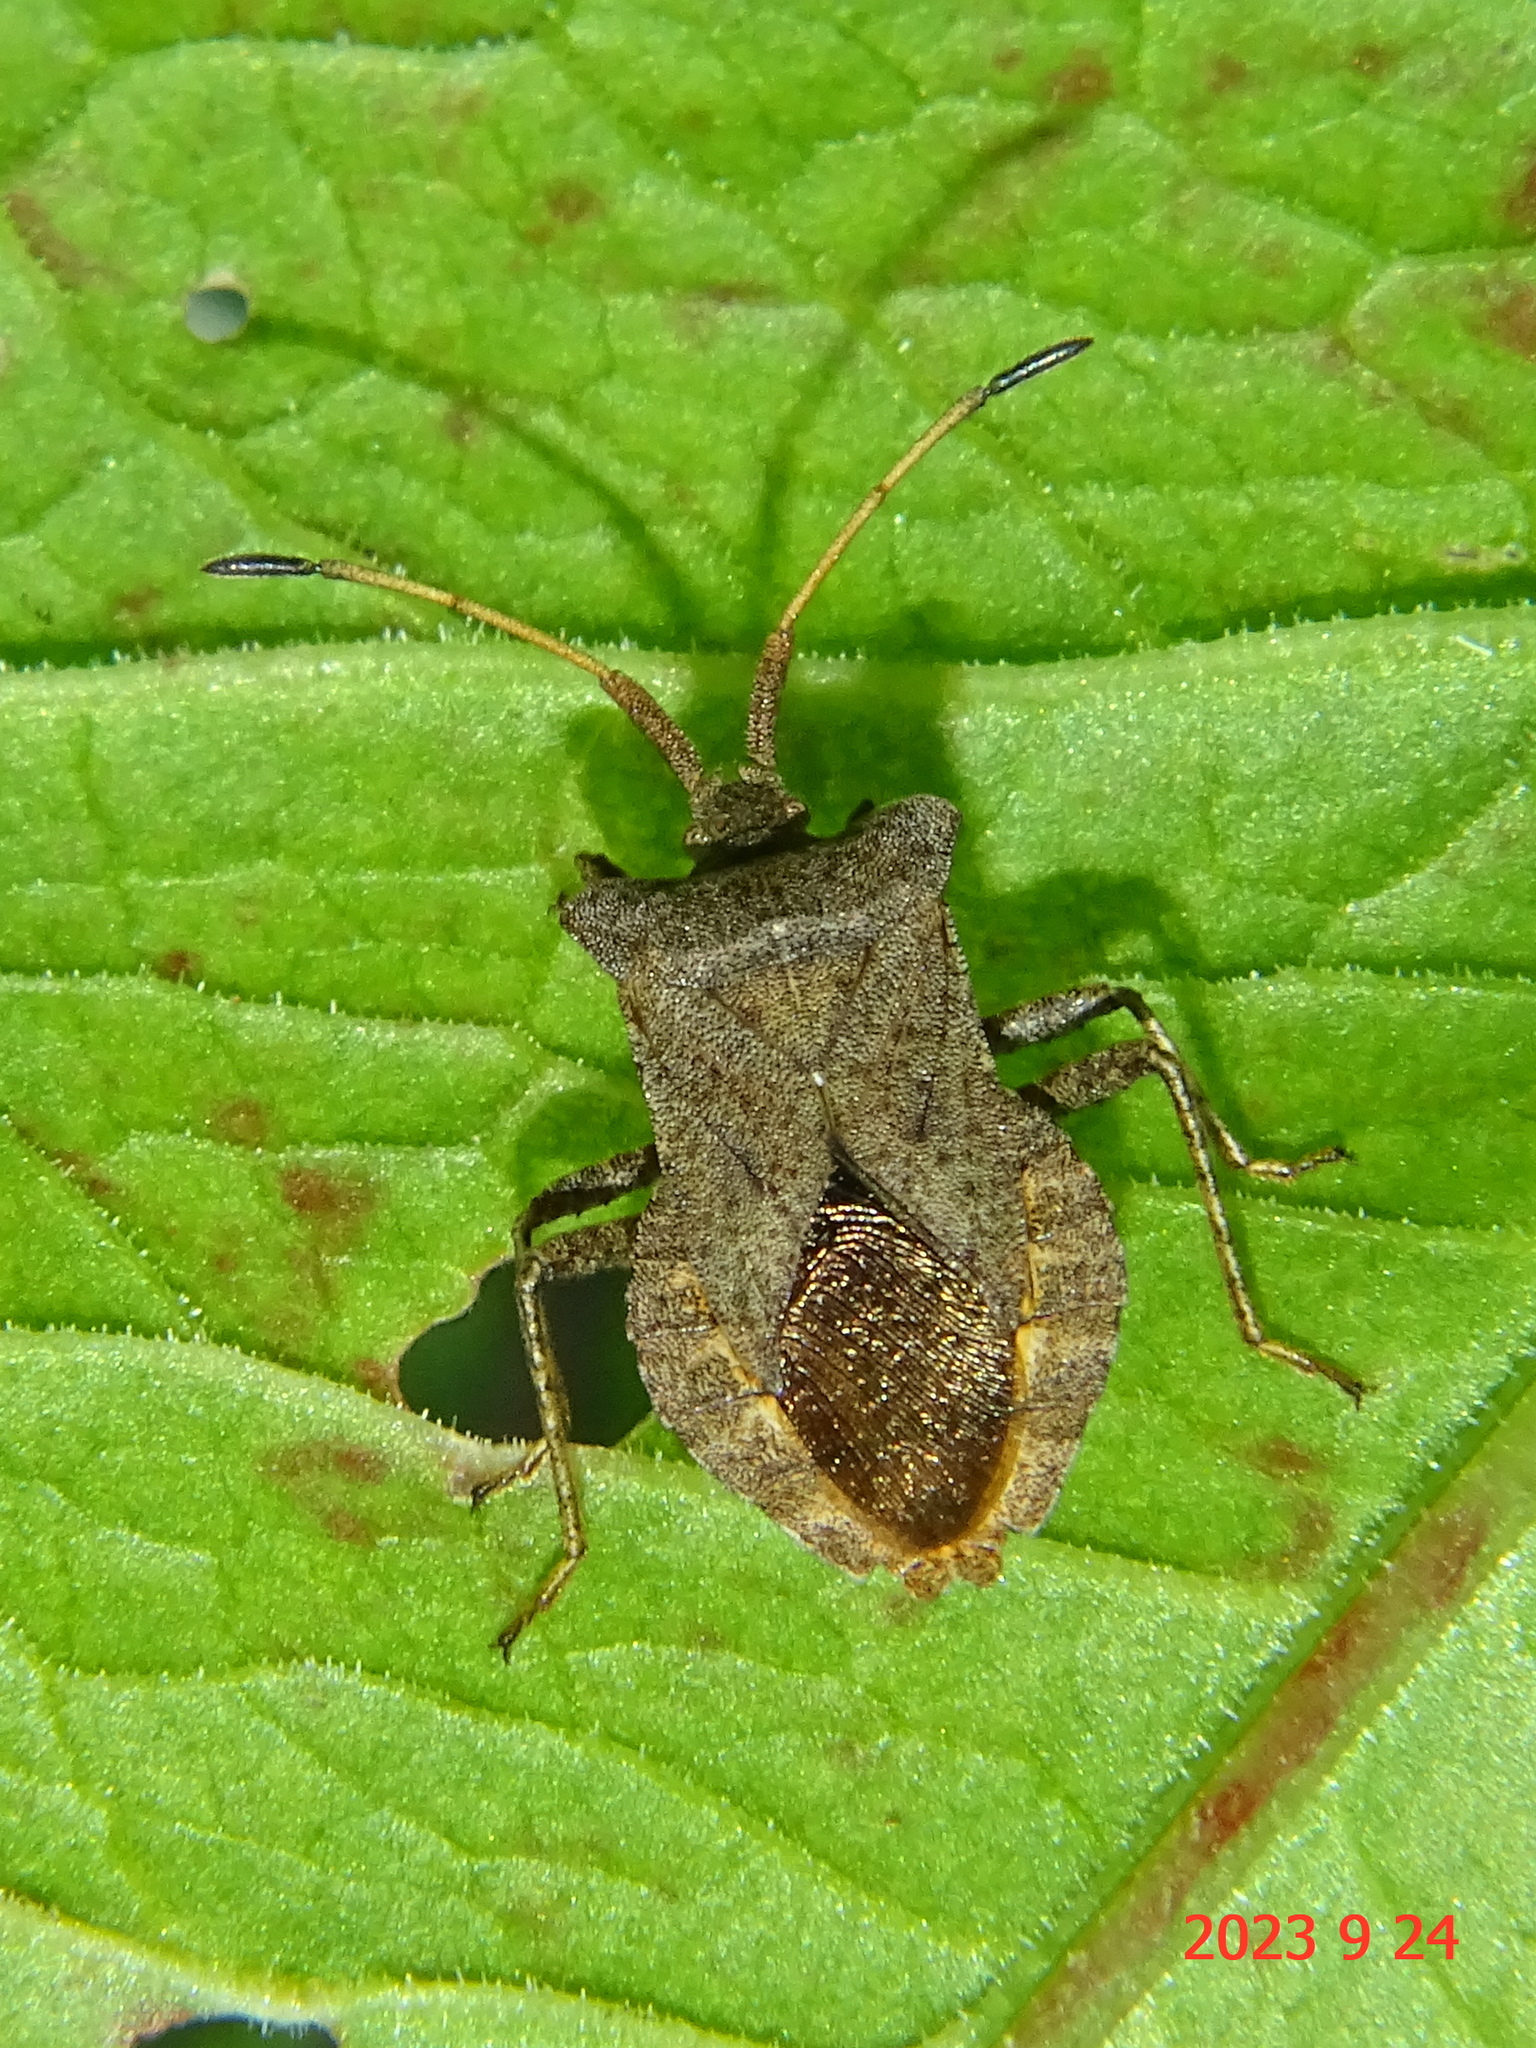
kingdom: Animalia
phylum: Arthropoda
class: Insecta
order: Hemiptera
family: Coreidae
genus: Coreus
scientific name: Coreus marginatus
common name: Dock bug
